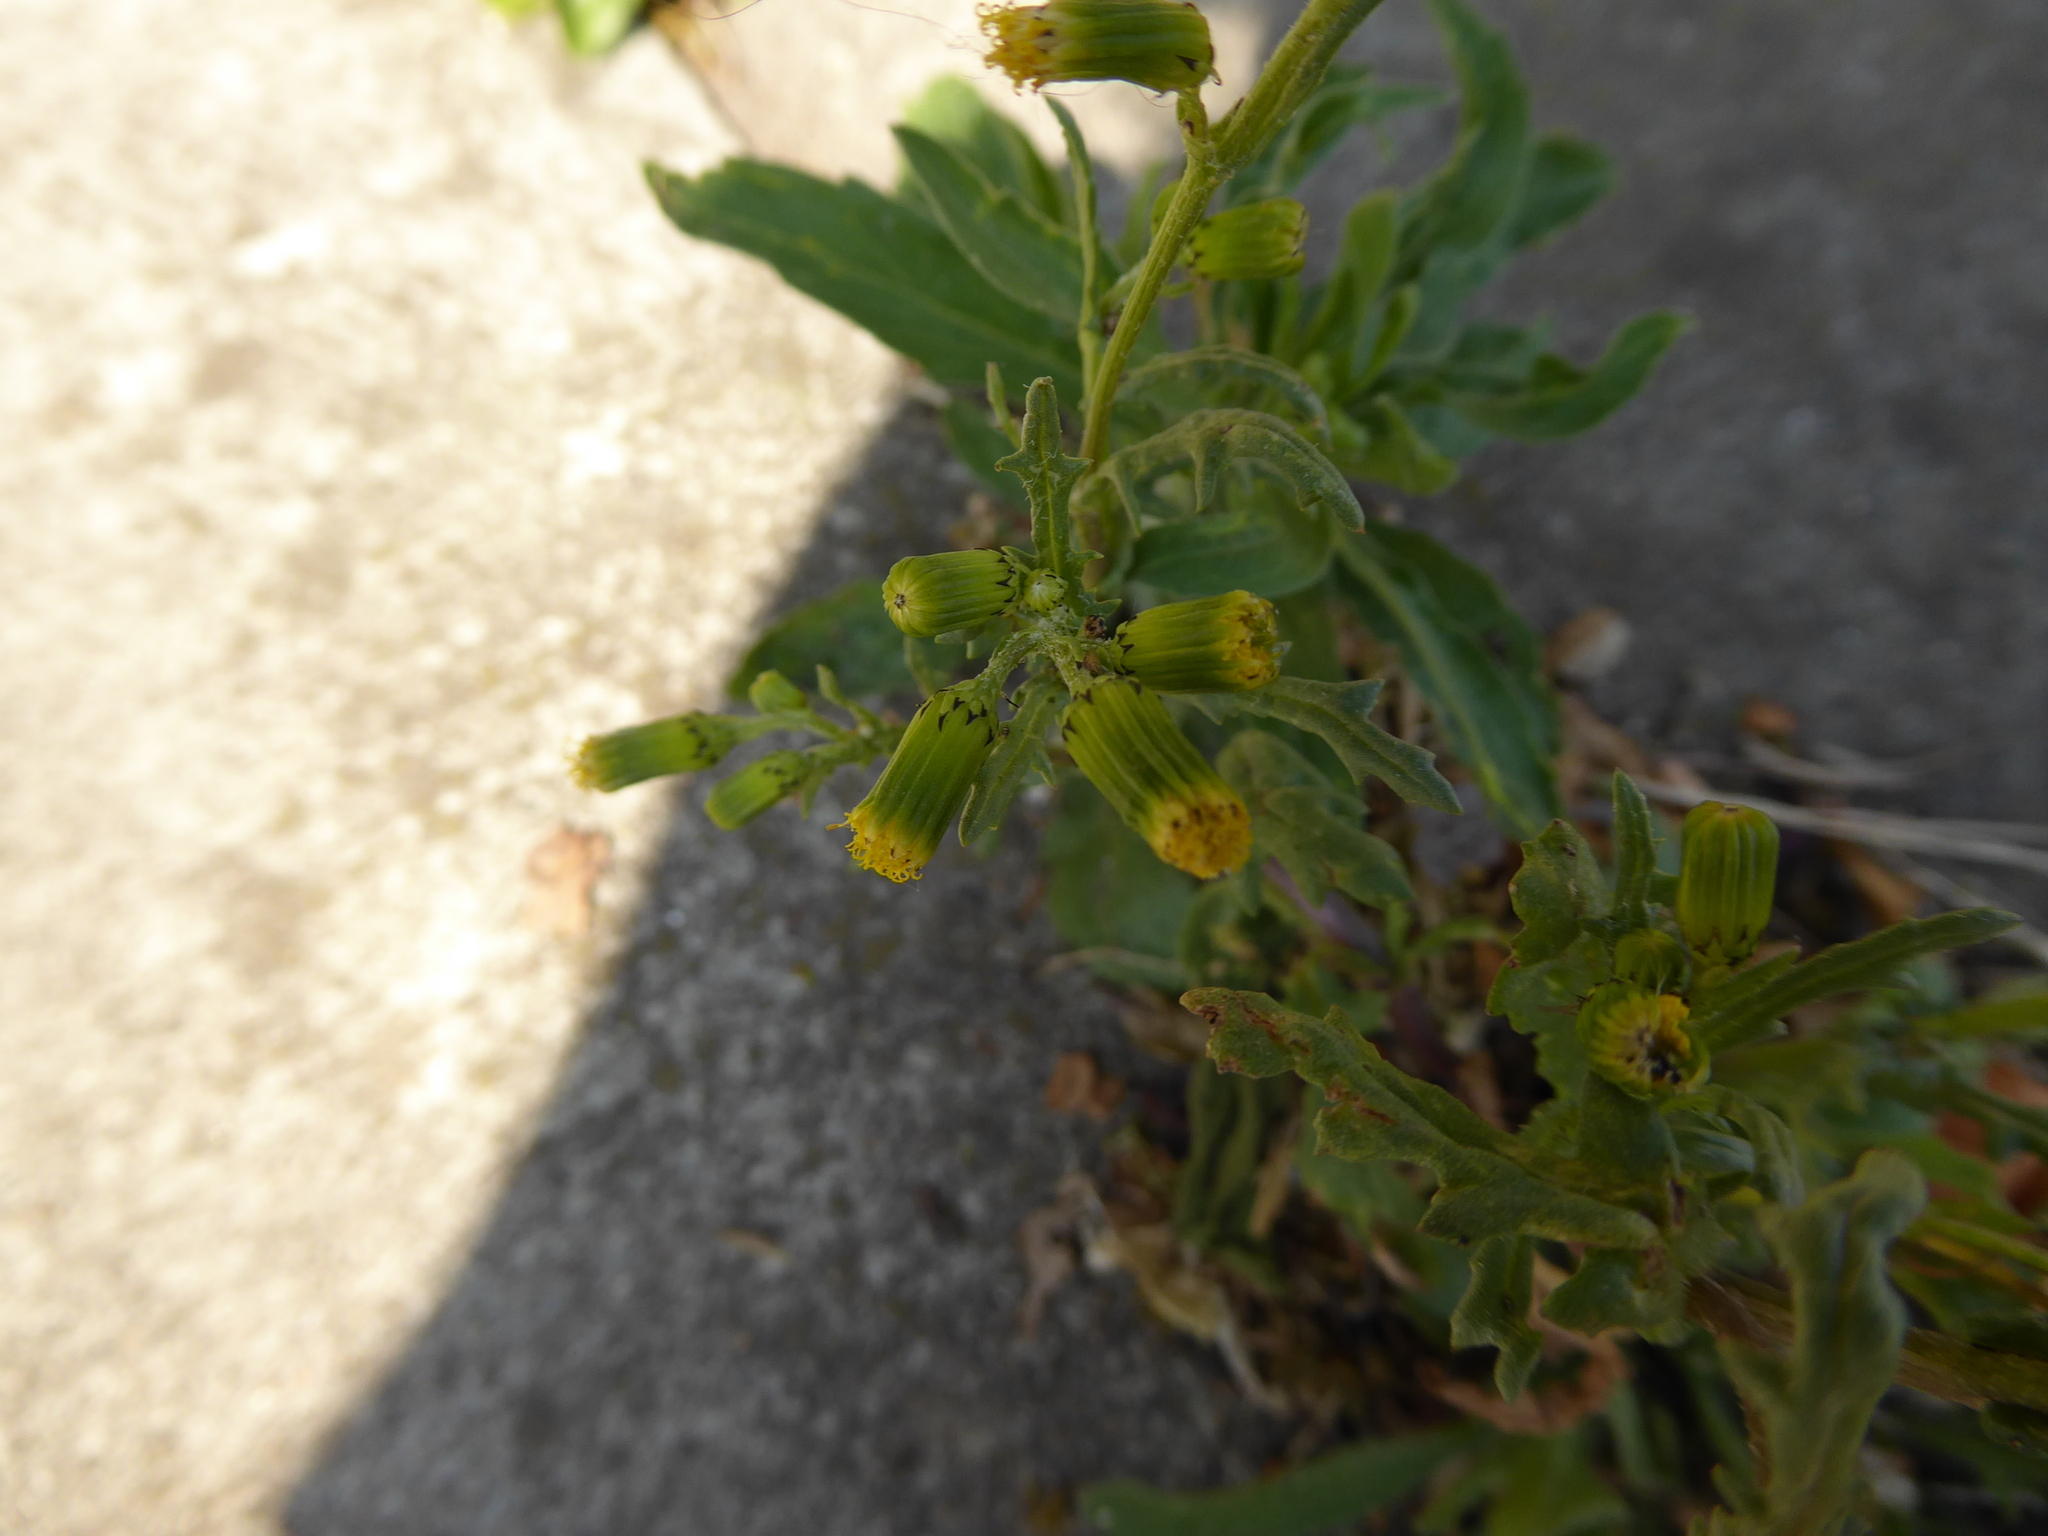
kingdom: Plantae
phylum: Tracheophyta
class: Magnoliopsida
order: Asterales
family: Asteraceae
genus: Senecio
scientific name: Senecio vulgaris
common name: Old-man-in-the-spring
